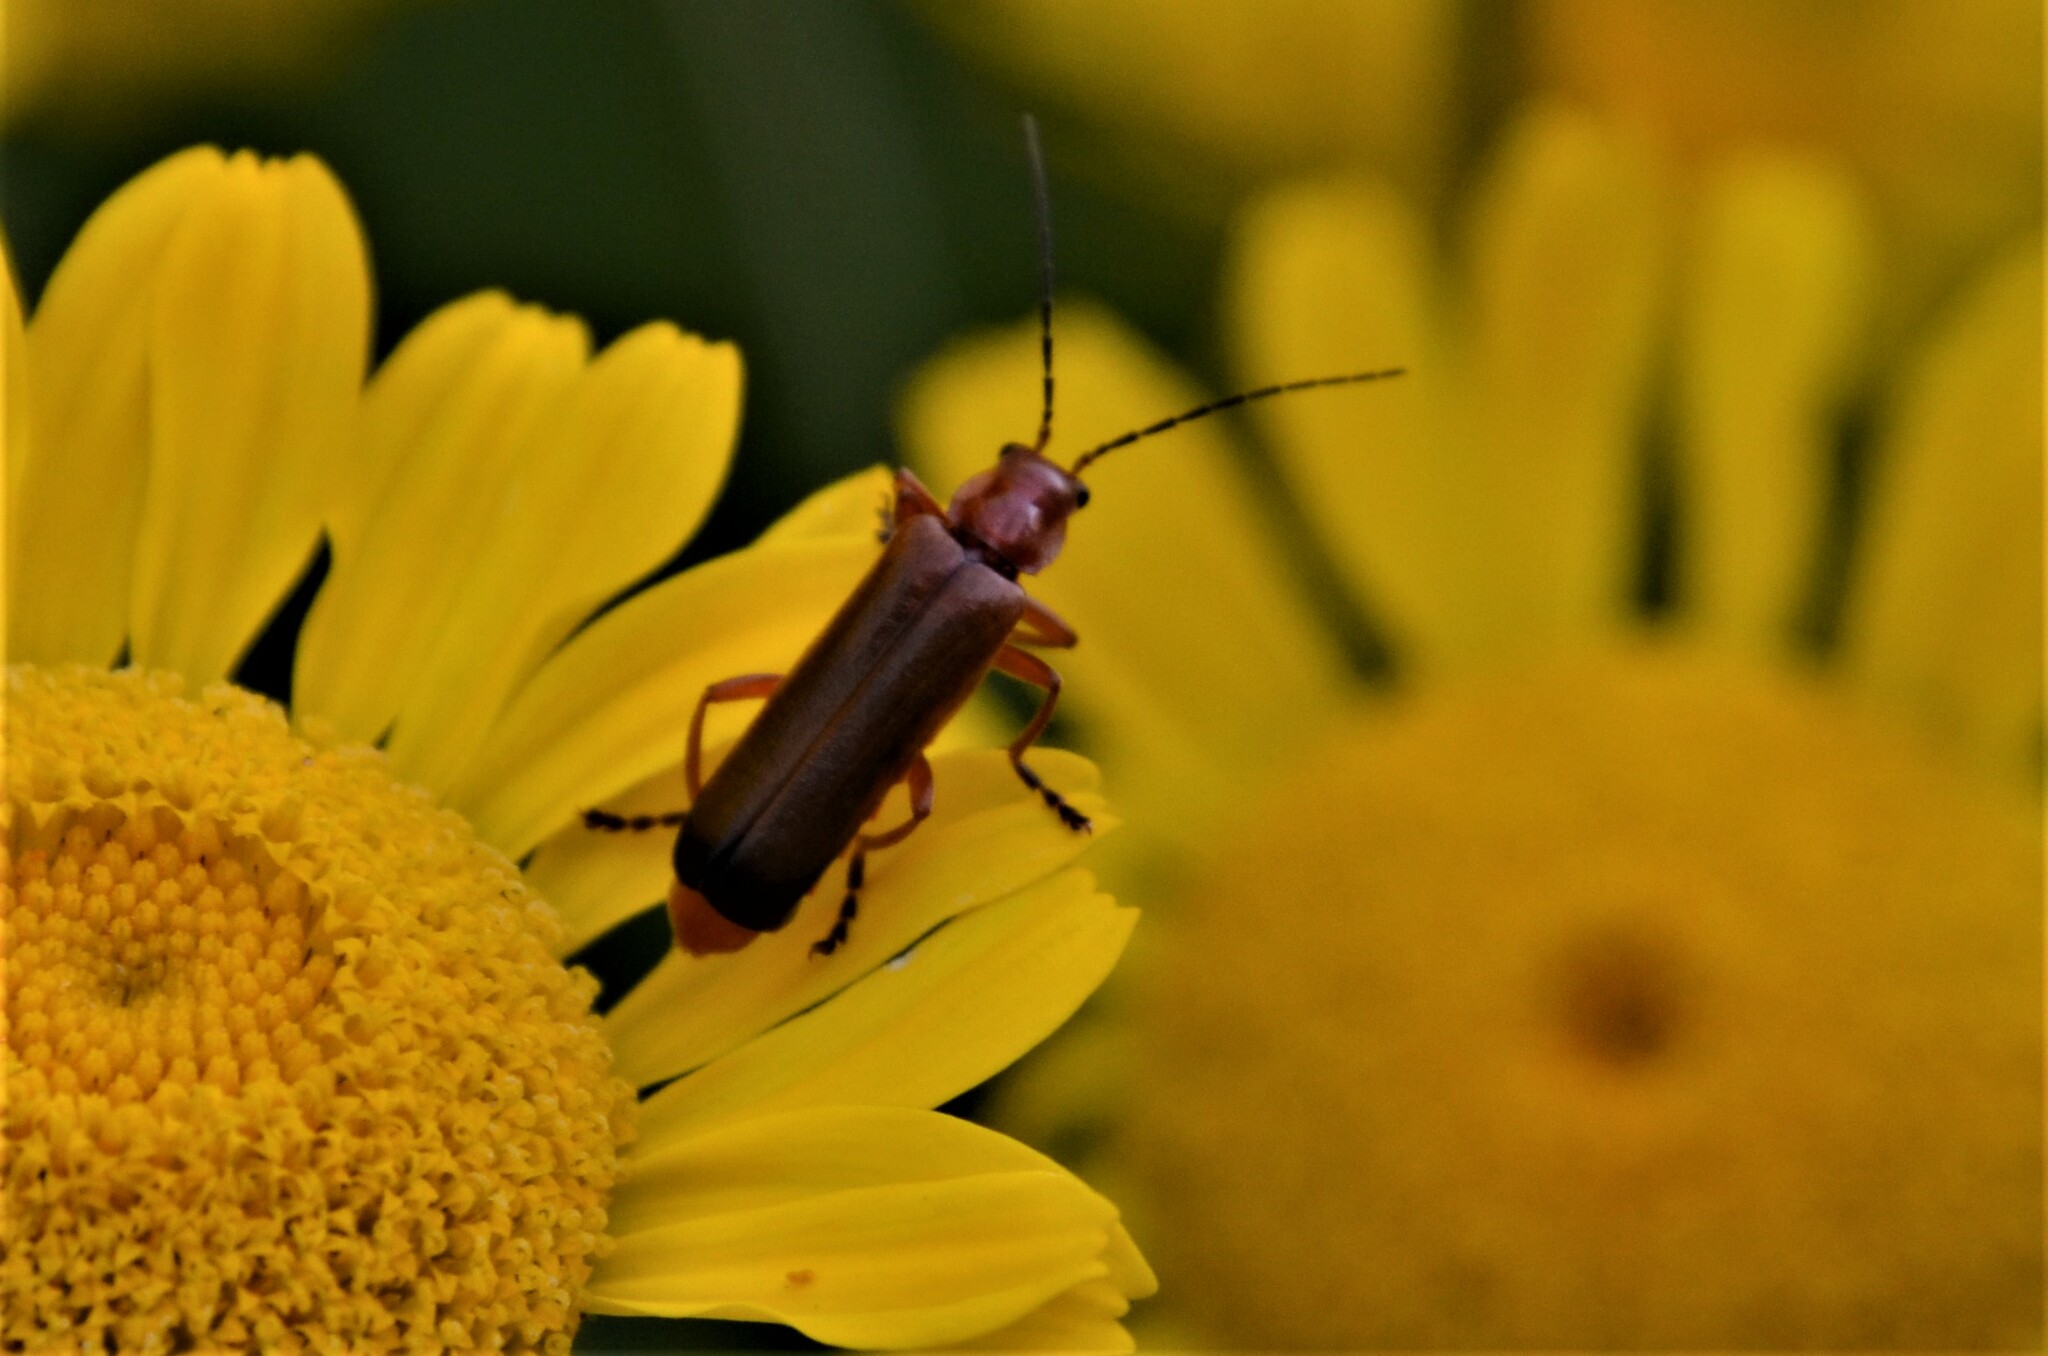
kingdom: Animalia
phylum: Arthropoda
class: Insecta
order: Coleoptera
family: Cantharidae
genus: Ancistronycha
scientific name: Ancistronycha erichsonii
